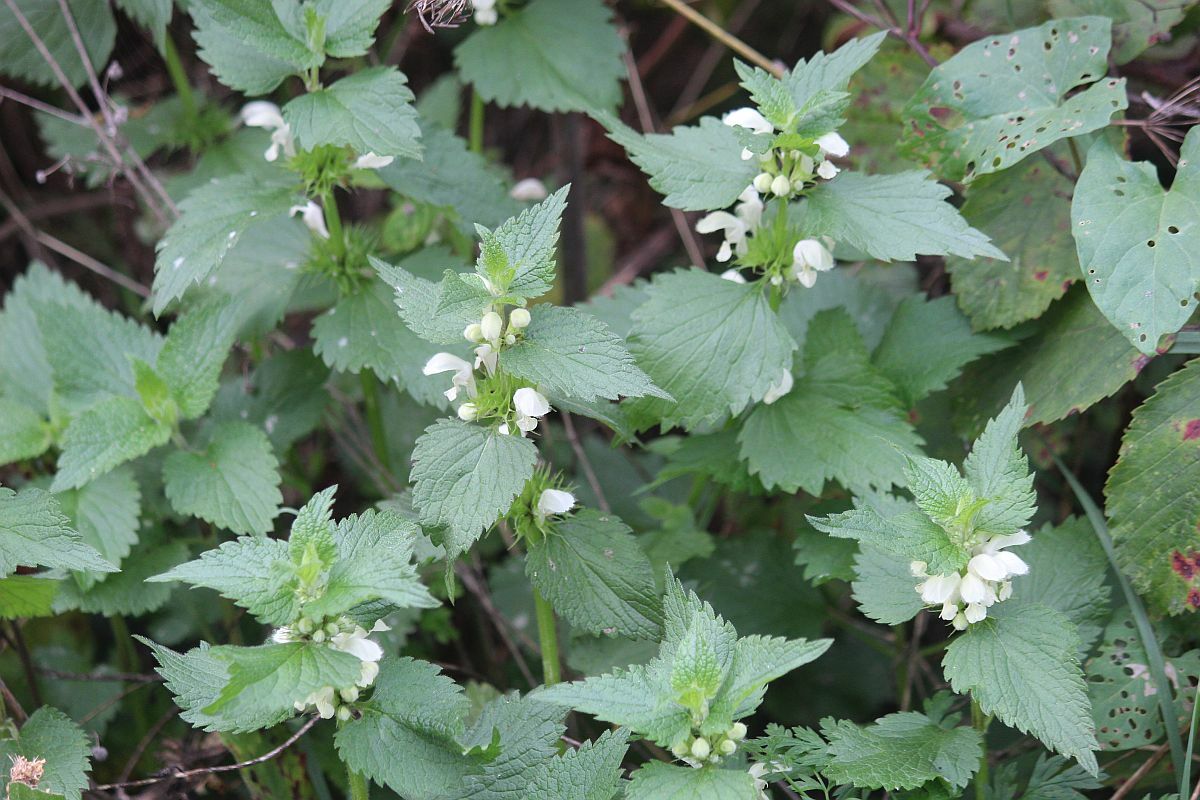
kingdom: Plantae
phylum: Tracheophyta
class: Magnoliopsida
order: Lamiales
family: Lamiaceae
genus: Lamium
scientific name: Lamium album
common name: White dead-nettle
